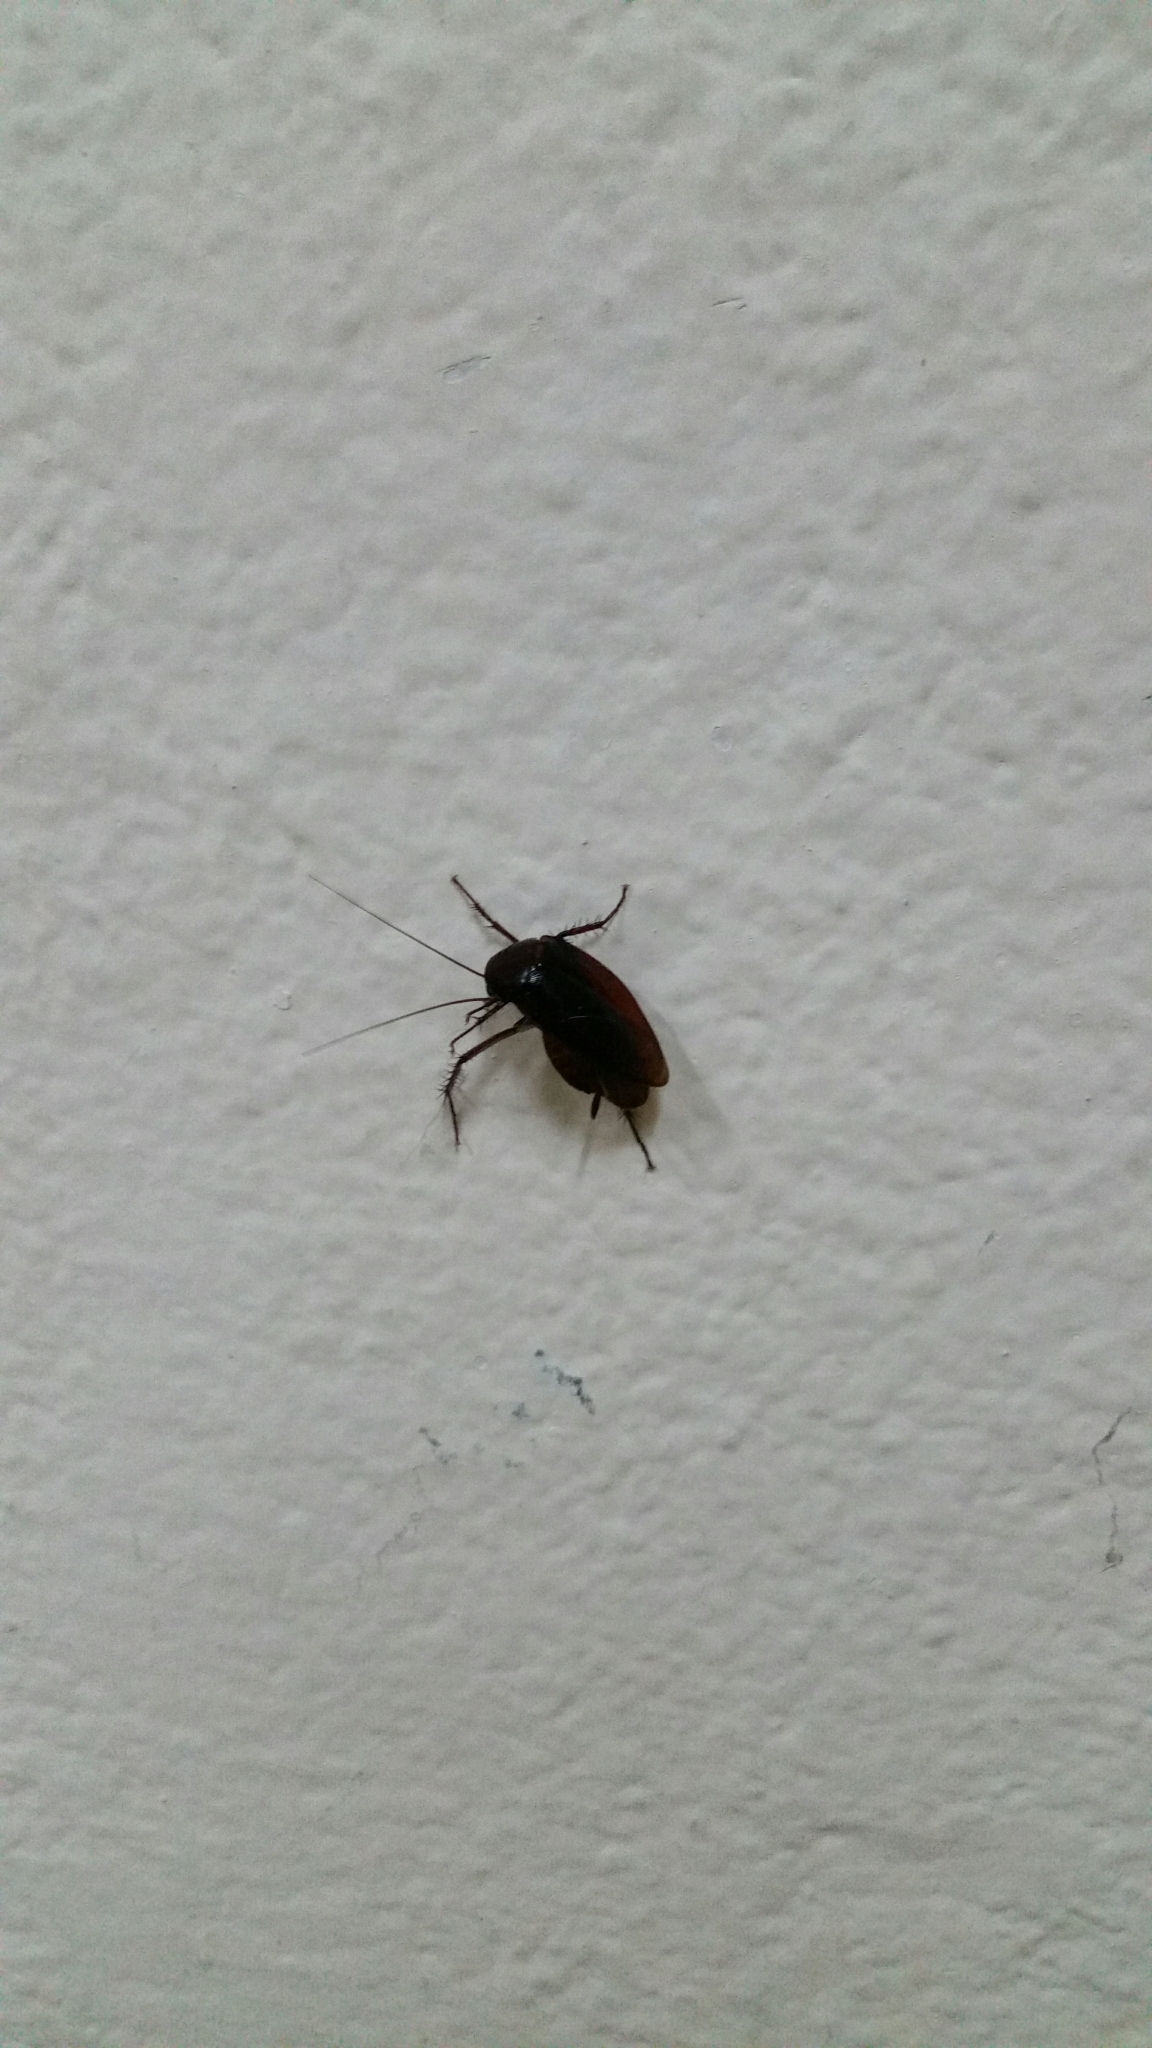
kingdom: Animalia
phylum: Arthropoda
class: Insecta
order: Blattodea
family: Blattidae
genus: Periplaneta
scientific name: Periplaneta fuliginosa
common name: Smokeybrown cockroad
